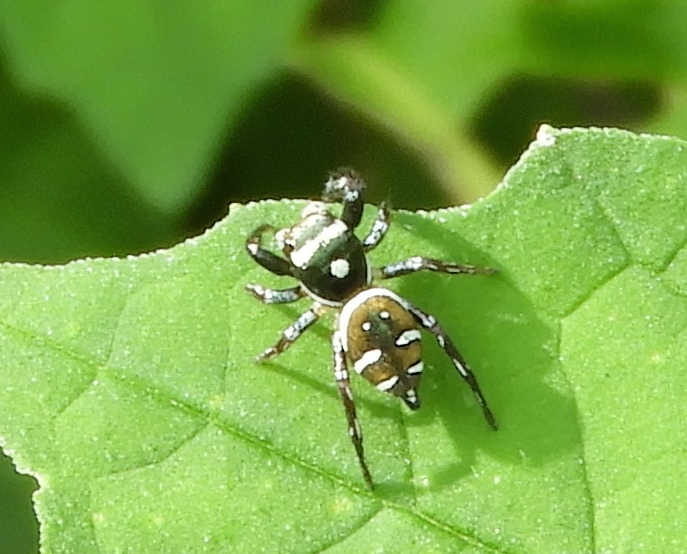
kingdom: Animalia
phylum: Arthropoda
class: Arachnida
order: Araneae
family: Salticidae
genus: Sassacus
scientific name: Sassacus
